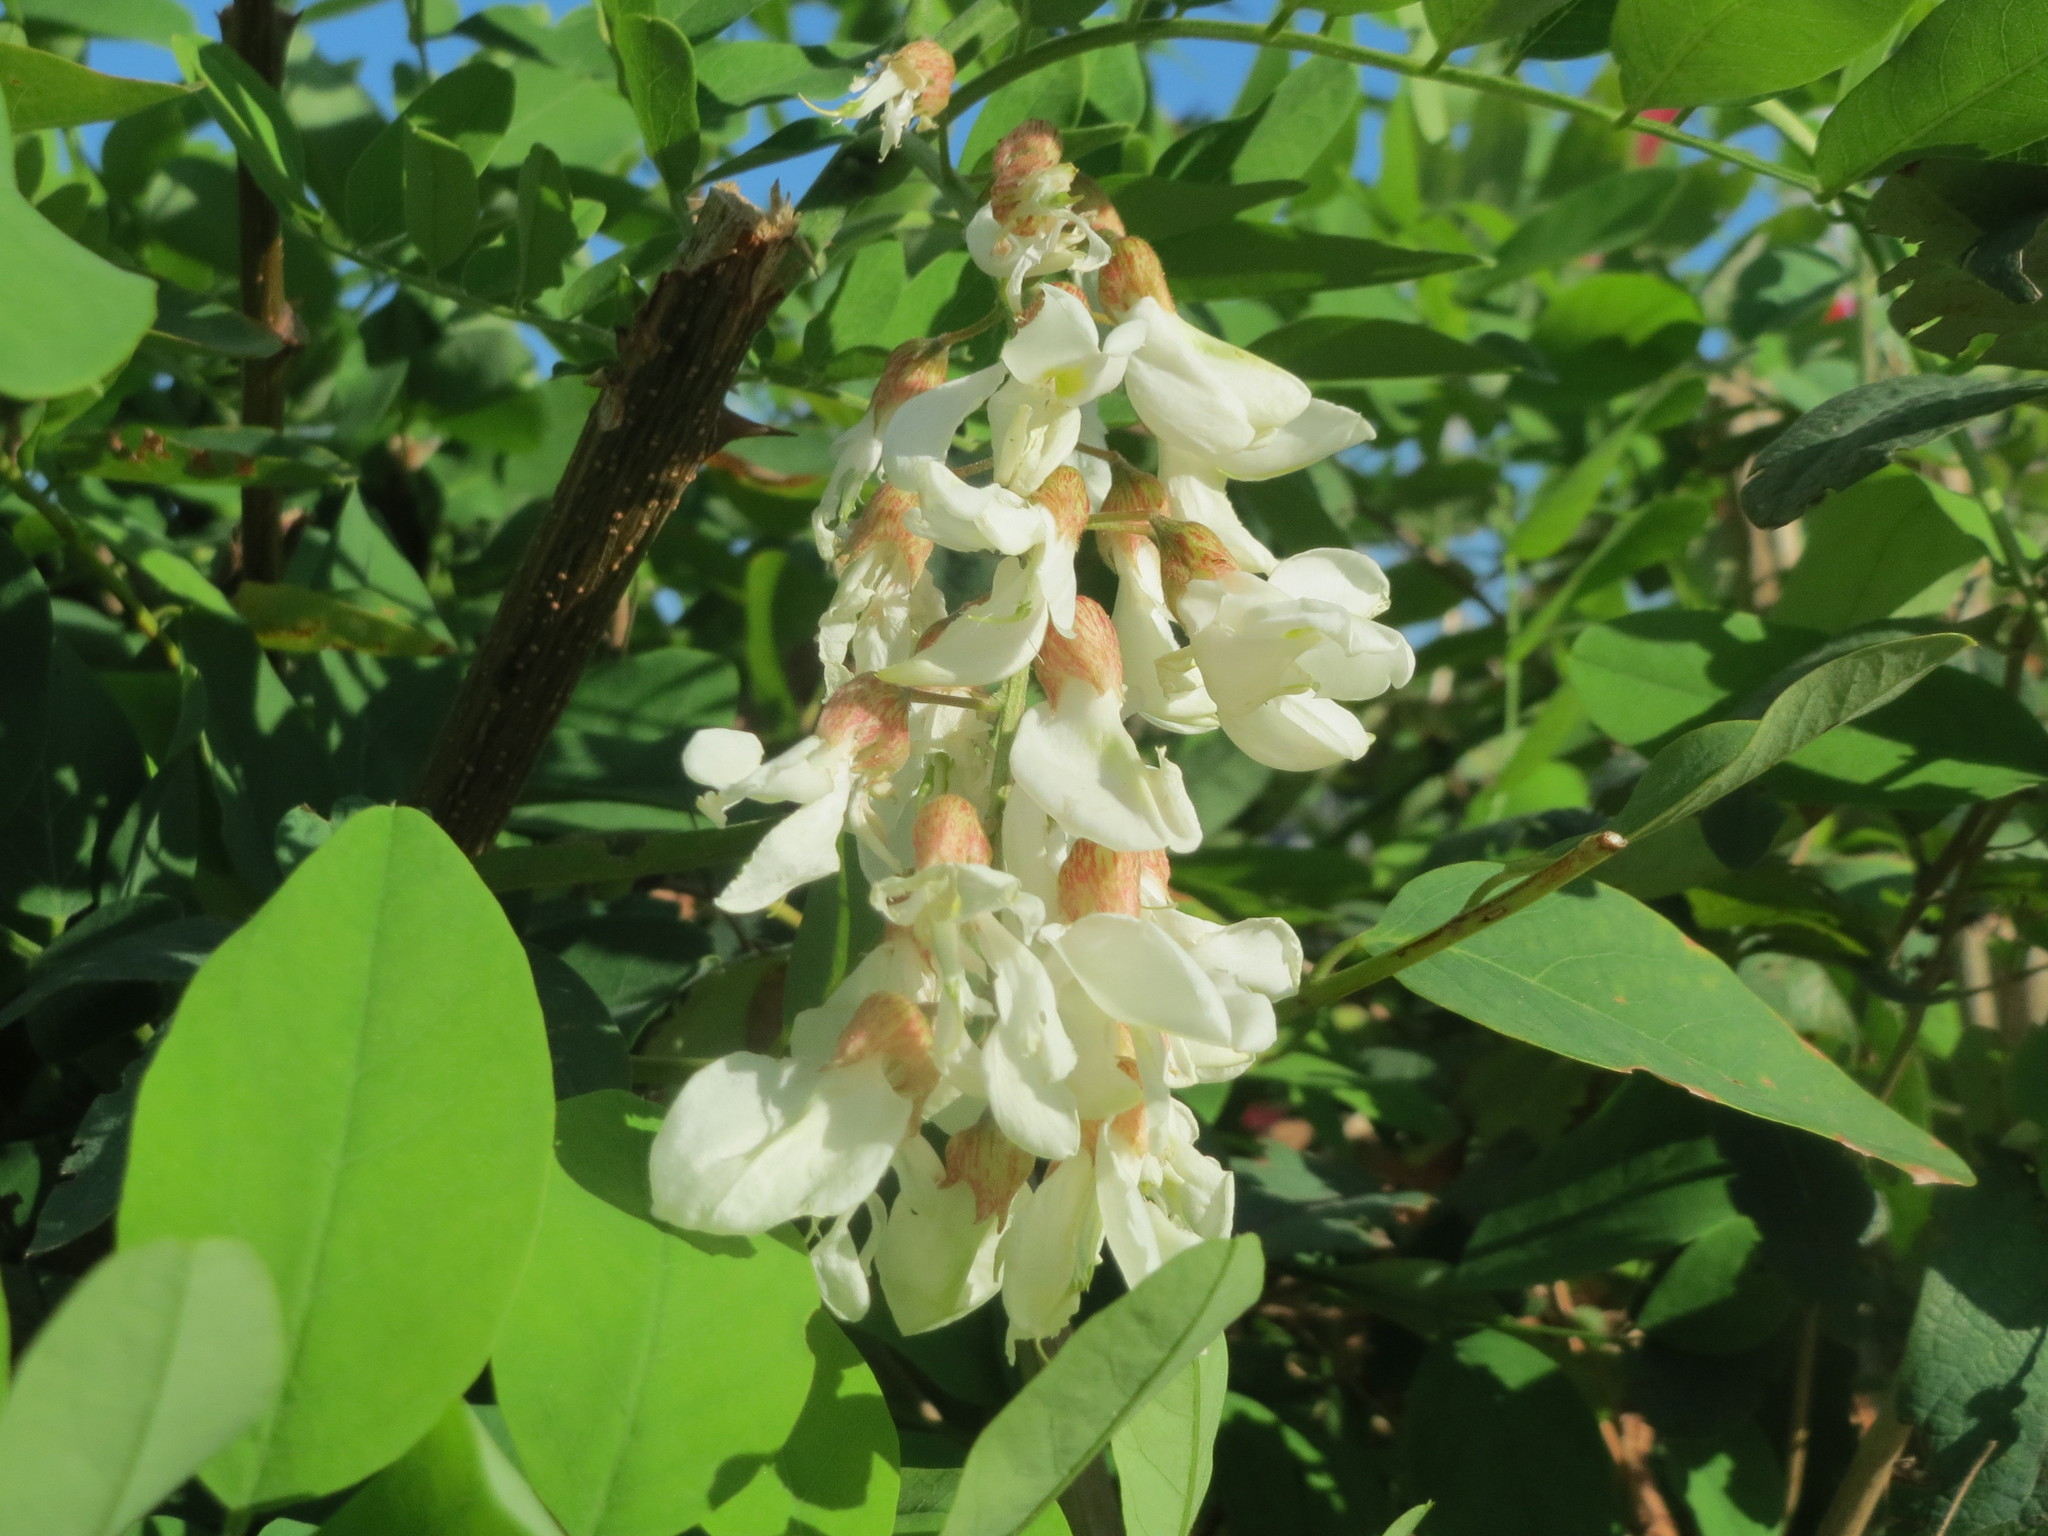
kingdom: Plantae
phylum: Tracheophyta
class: Magnoliopsida
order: Fabales
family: Fabaceae
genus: Robinia
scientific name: Robinia pseudoacacia
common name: Black locust
